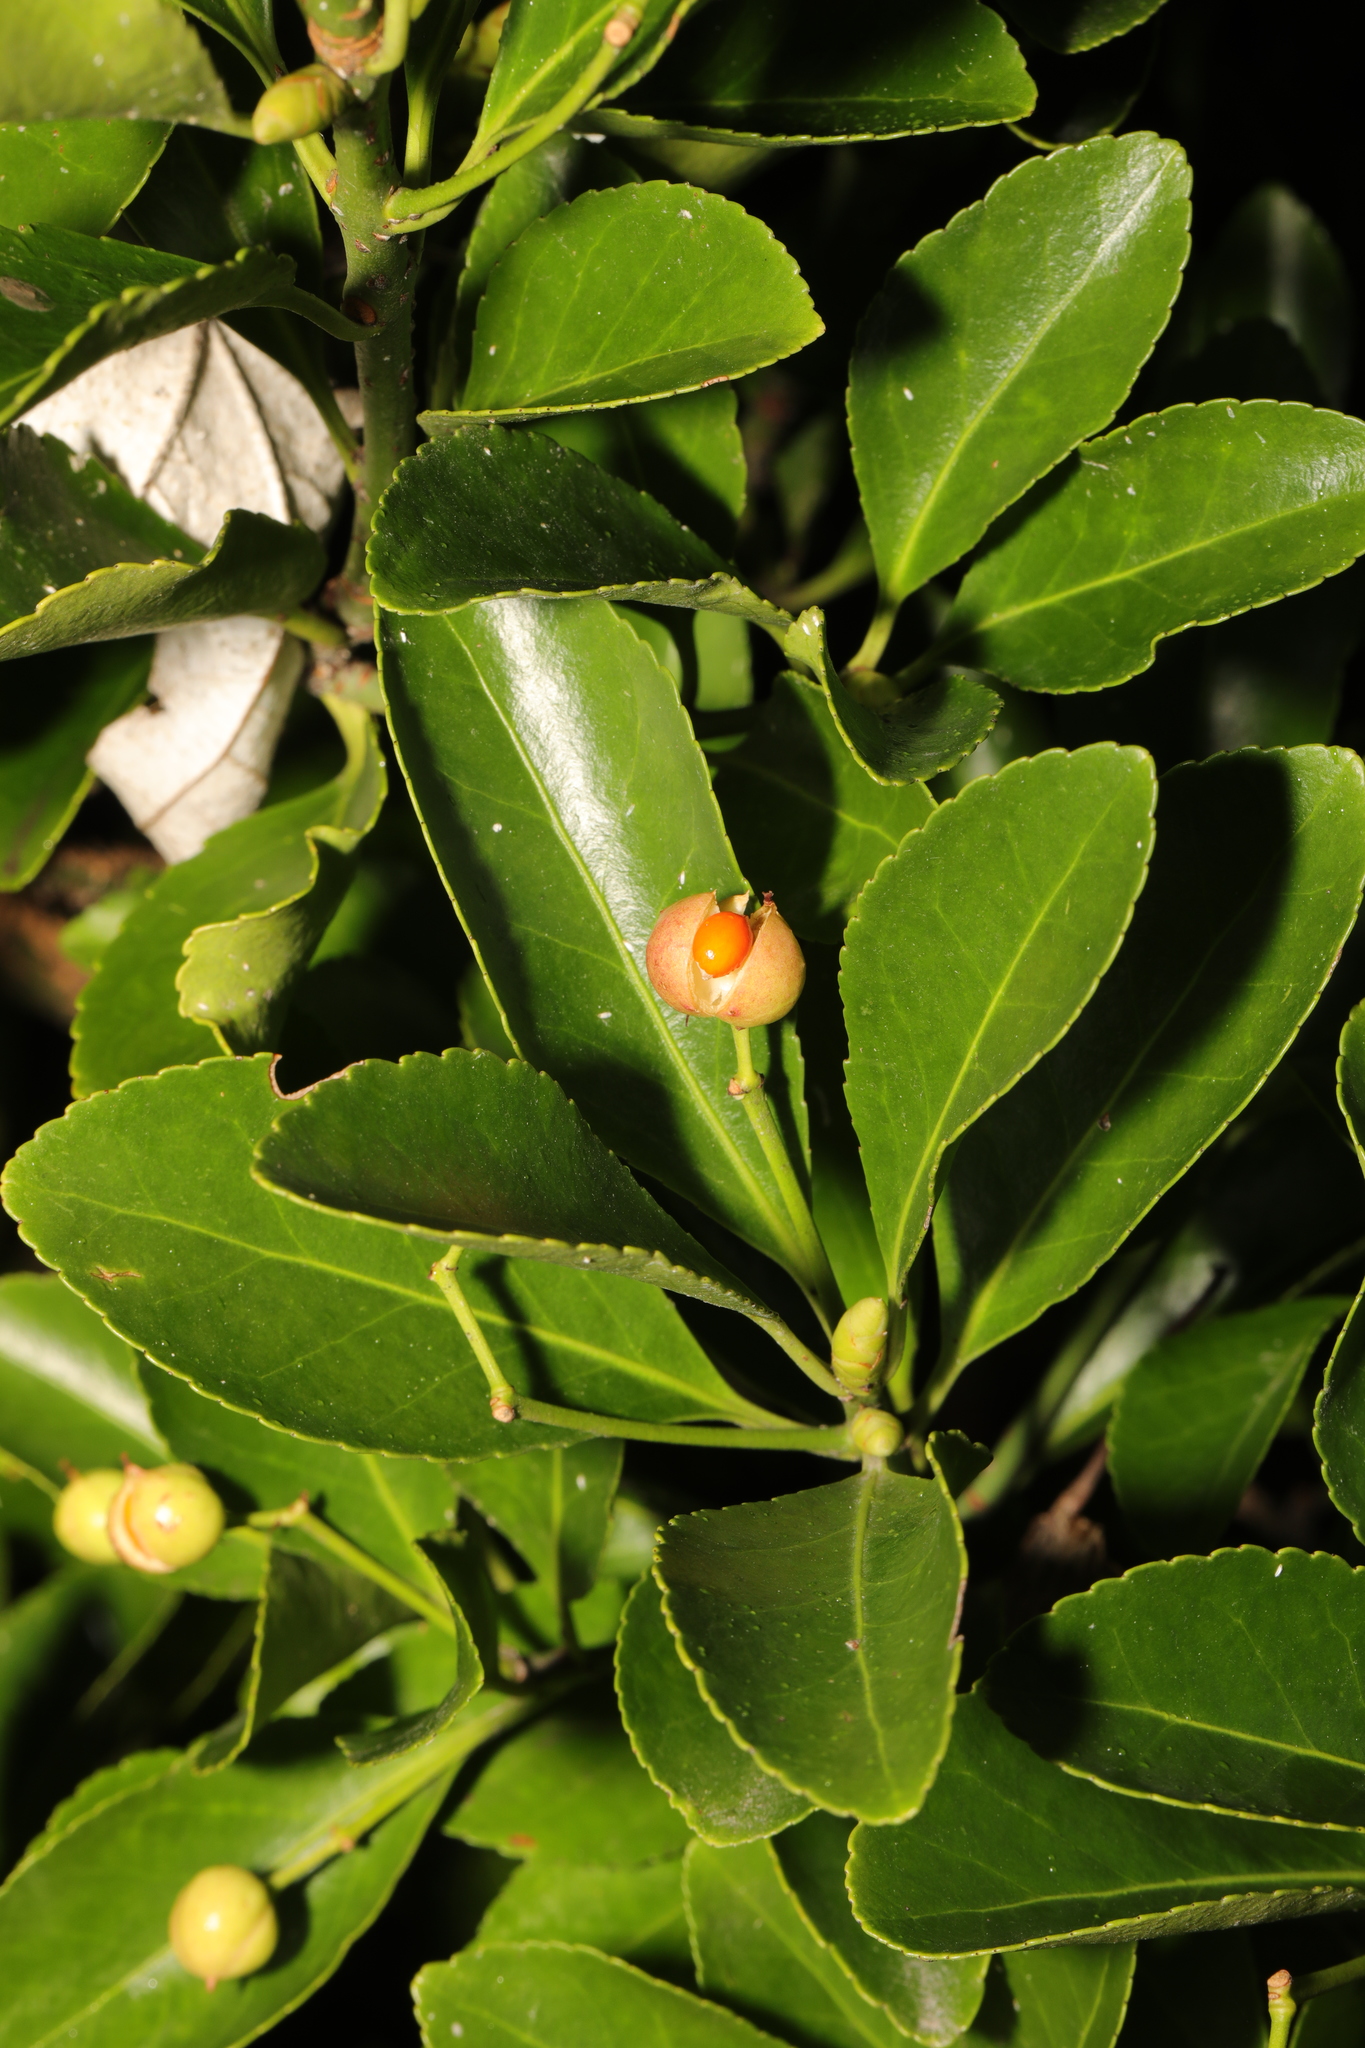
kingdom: Plantae
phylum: Tracheophyta
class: Magnoliopsida
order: Celastrales
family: Celastraceae
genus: Euonymus
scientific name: Euonymus japonicus
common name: Japanese spindletree
